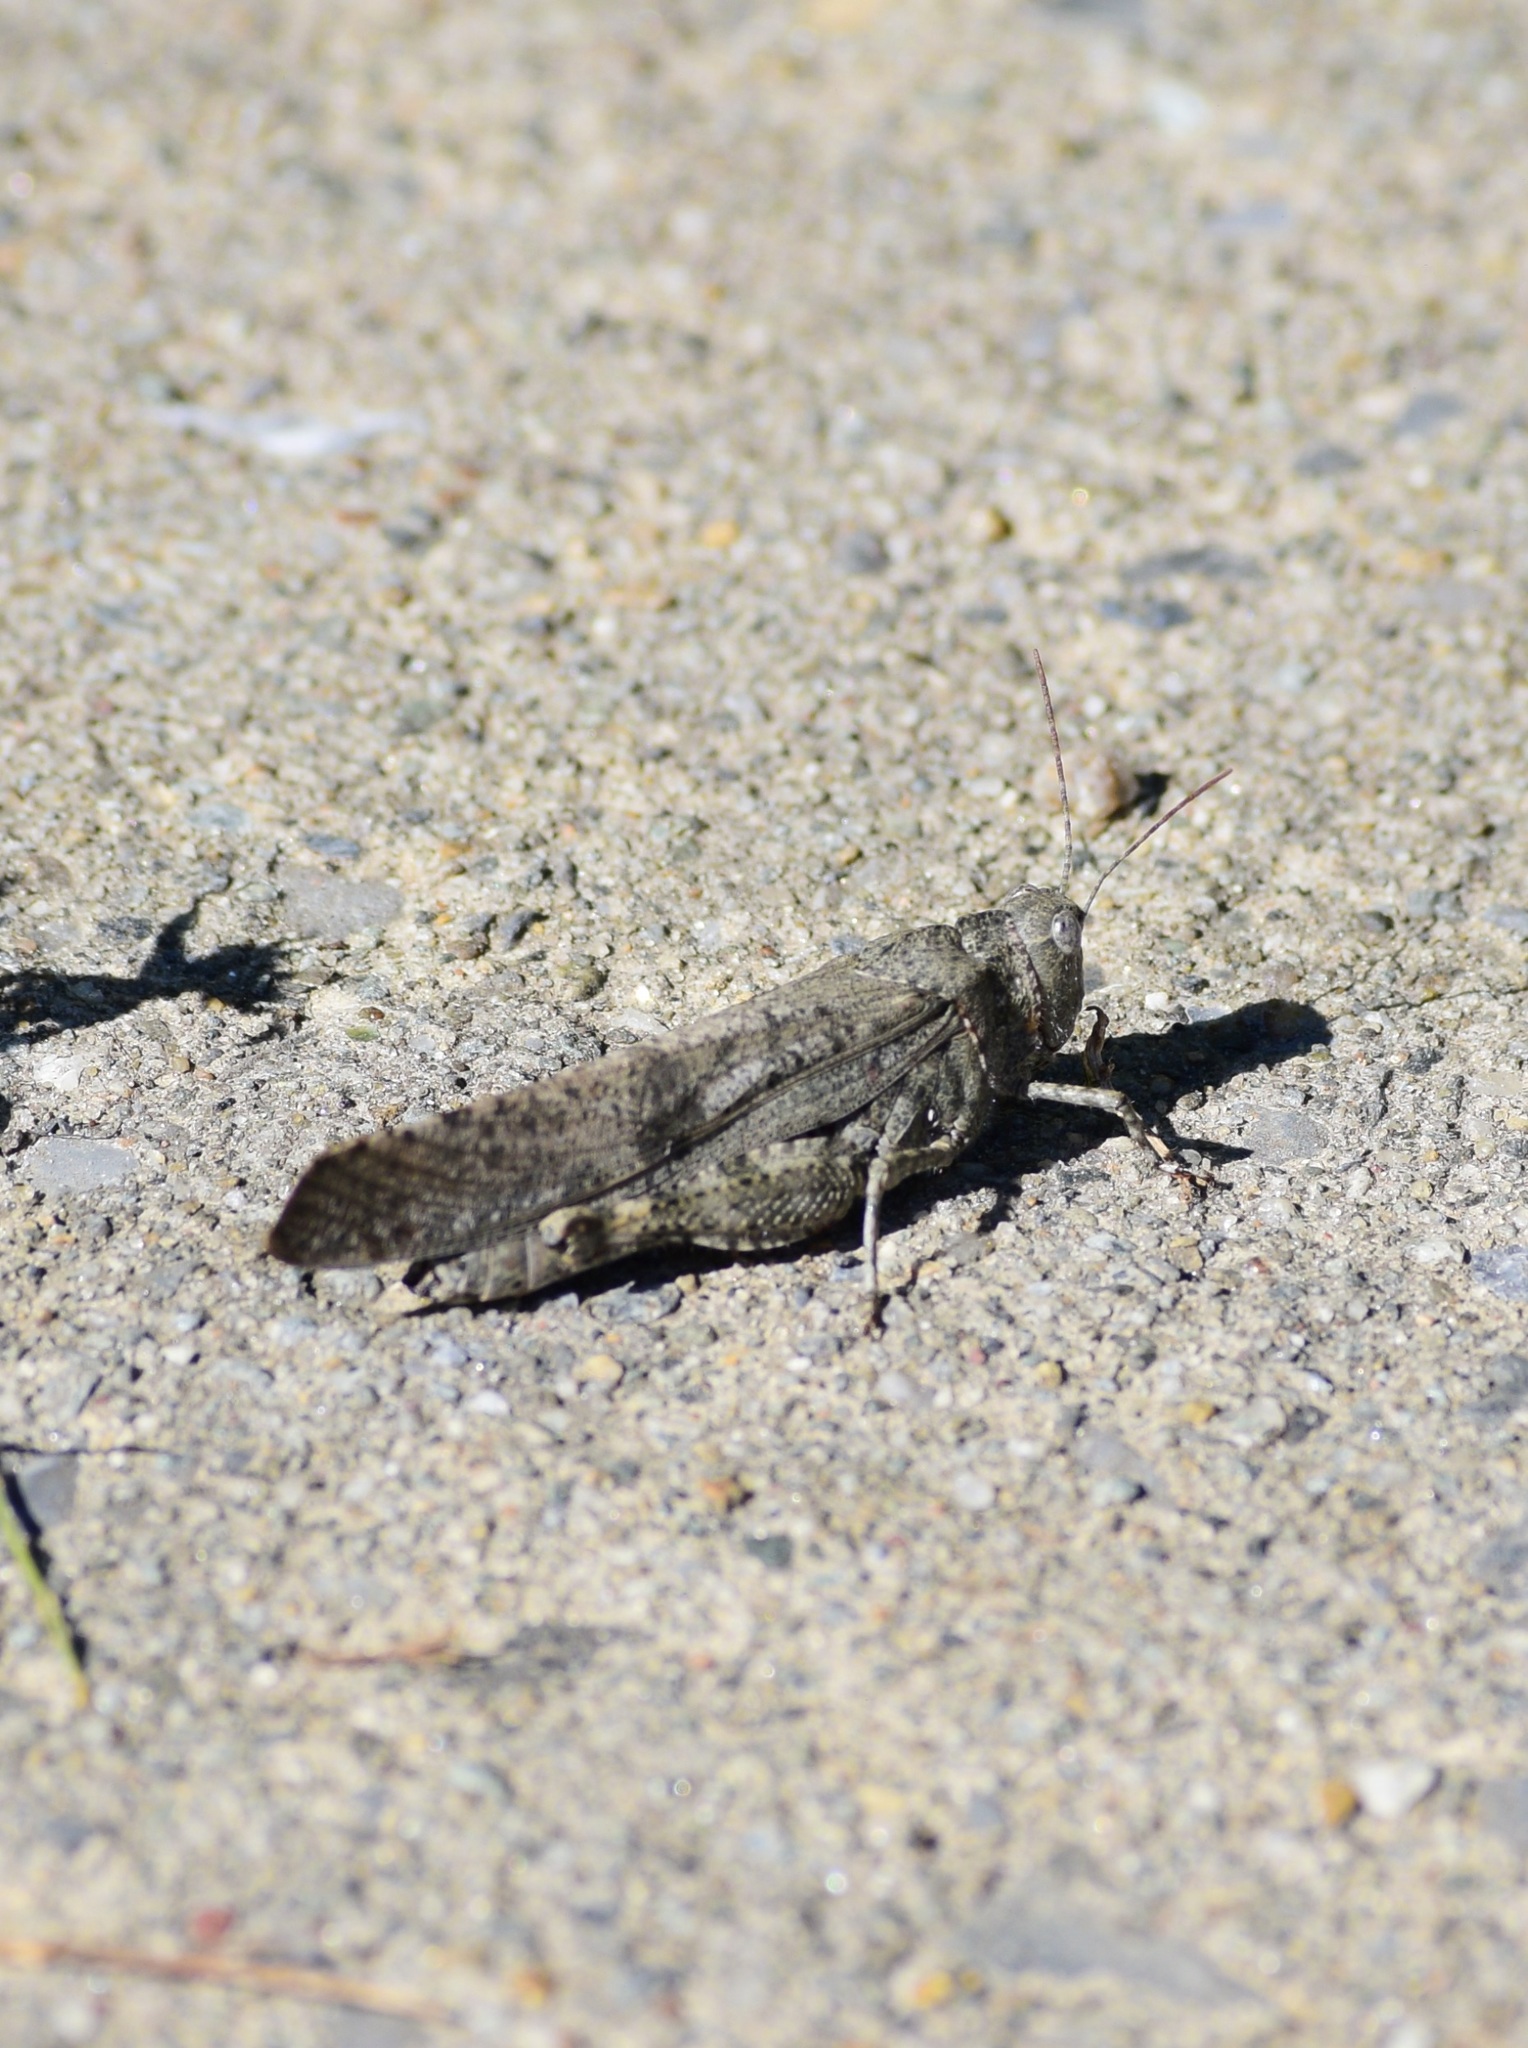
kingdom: Animalia
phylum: Arthropoda
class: Insecta
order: Orthoptera
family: Acrididae
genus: Dissosteira
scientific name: Dissosteira carolina
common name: Carolina grasshopper
